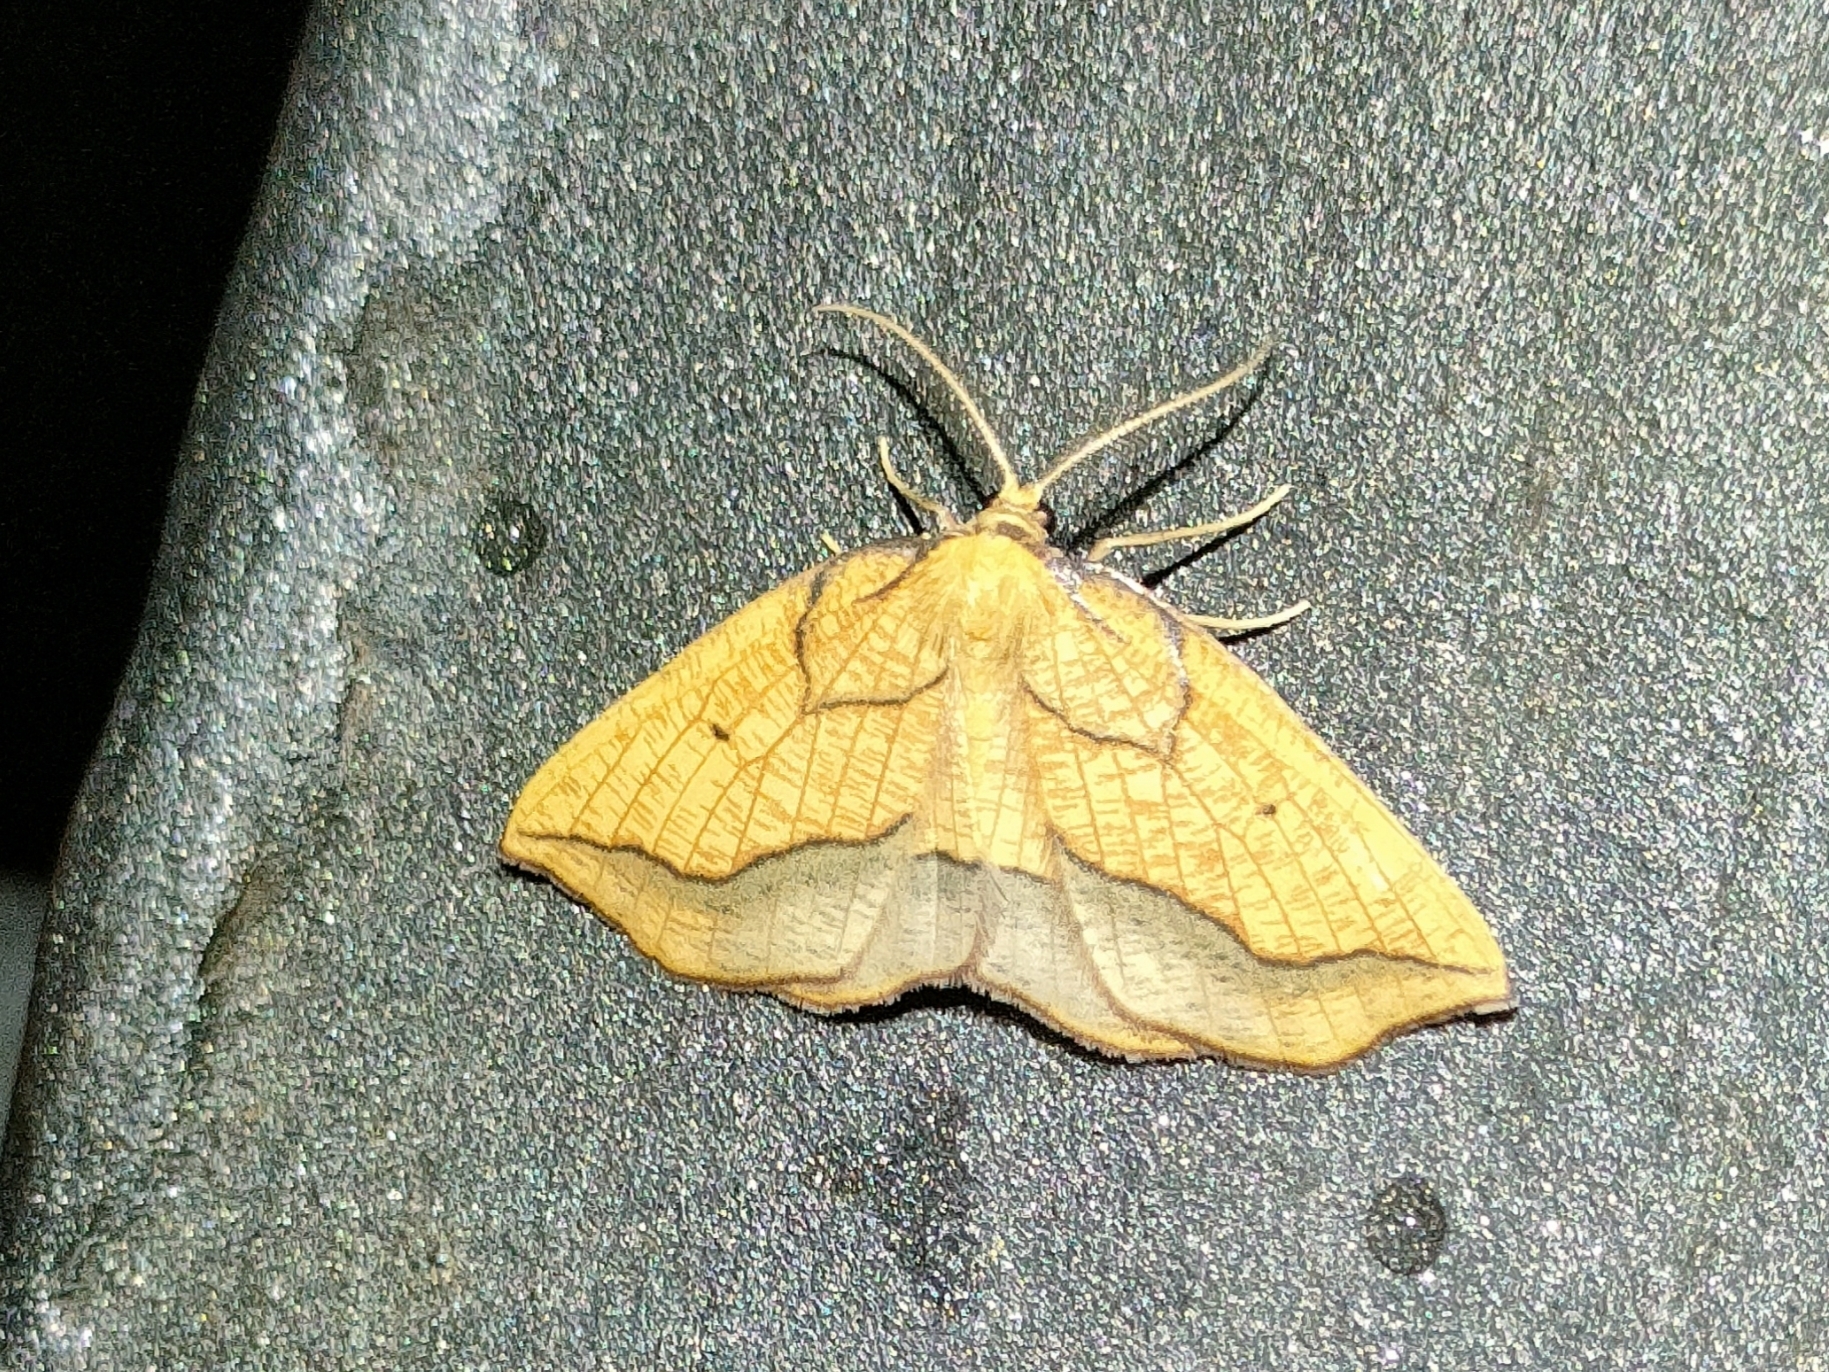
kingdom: Animalia
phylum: Arthropoda
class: Insecta
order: Lepidoptera
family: Geometridae
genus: Epione
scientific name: Epione repandaria
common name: Bordered beauty
